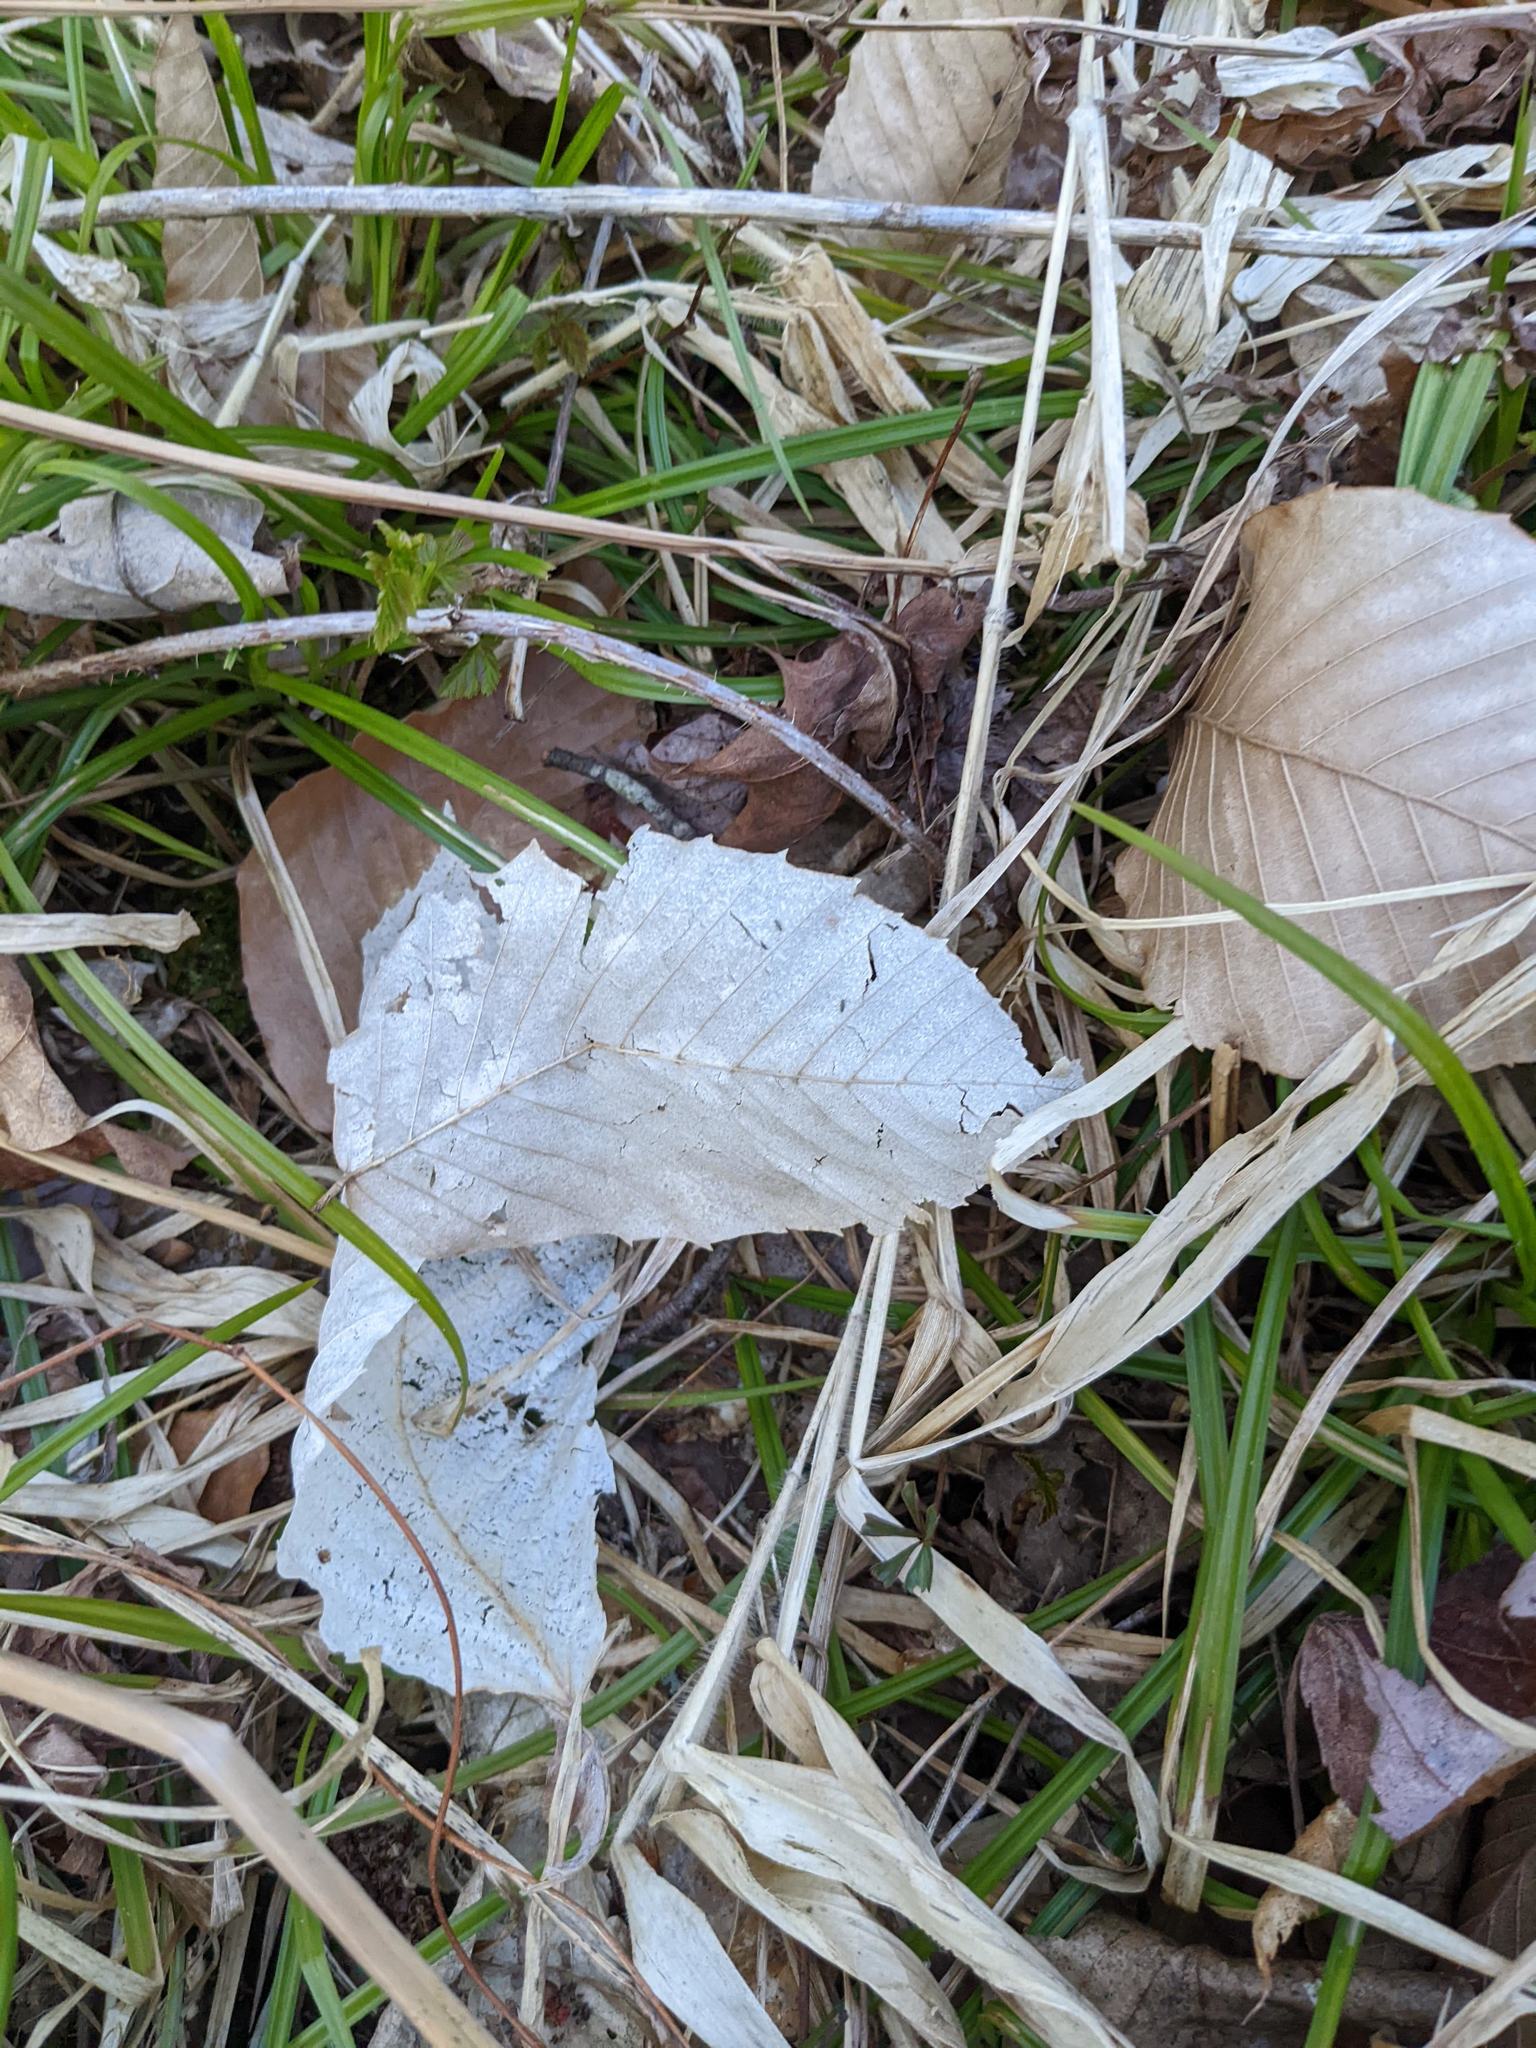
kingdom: Plantae
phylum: Tracheophyta
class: Magnoliopsida
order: Fagales
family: Fagaceae
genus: Fagus
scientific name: Fagus grandifolia
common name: American beech
